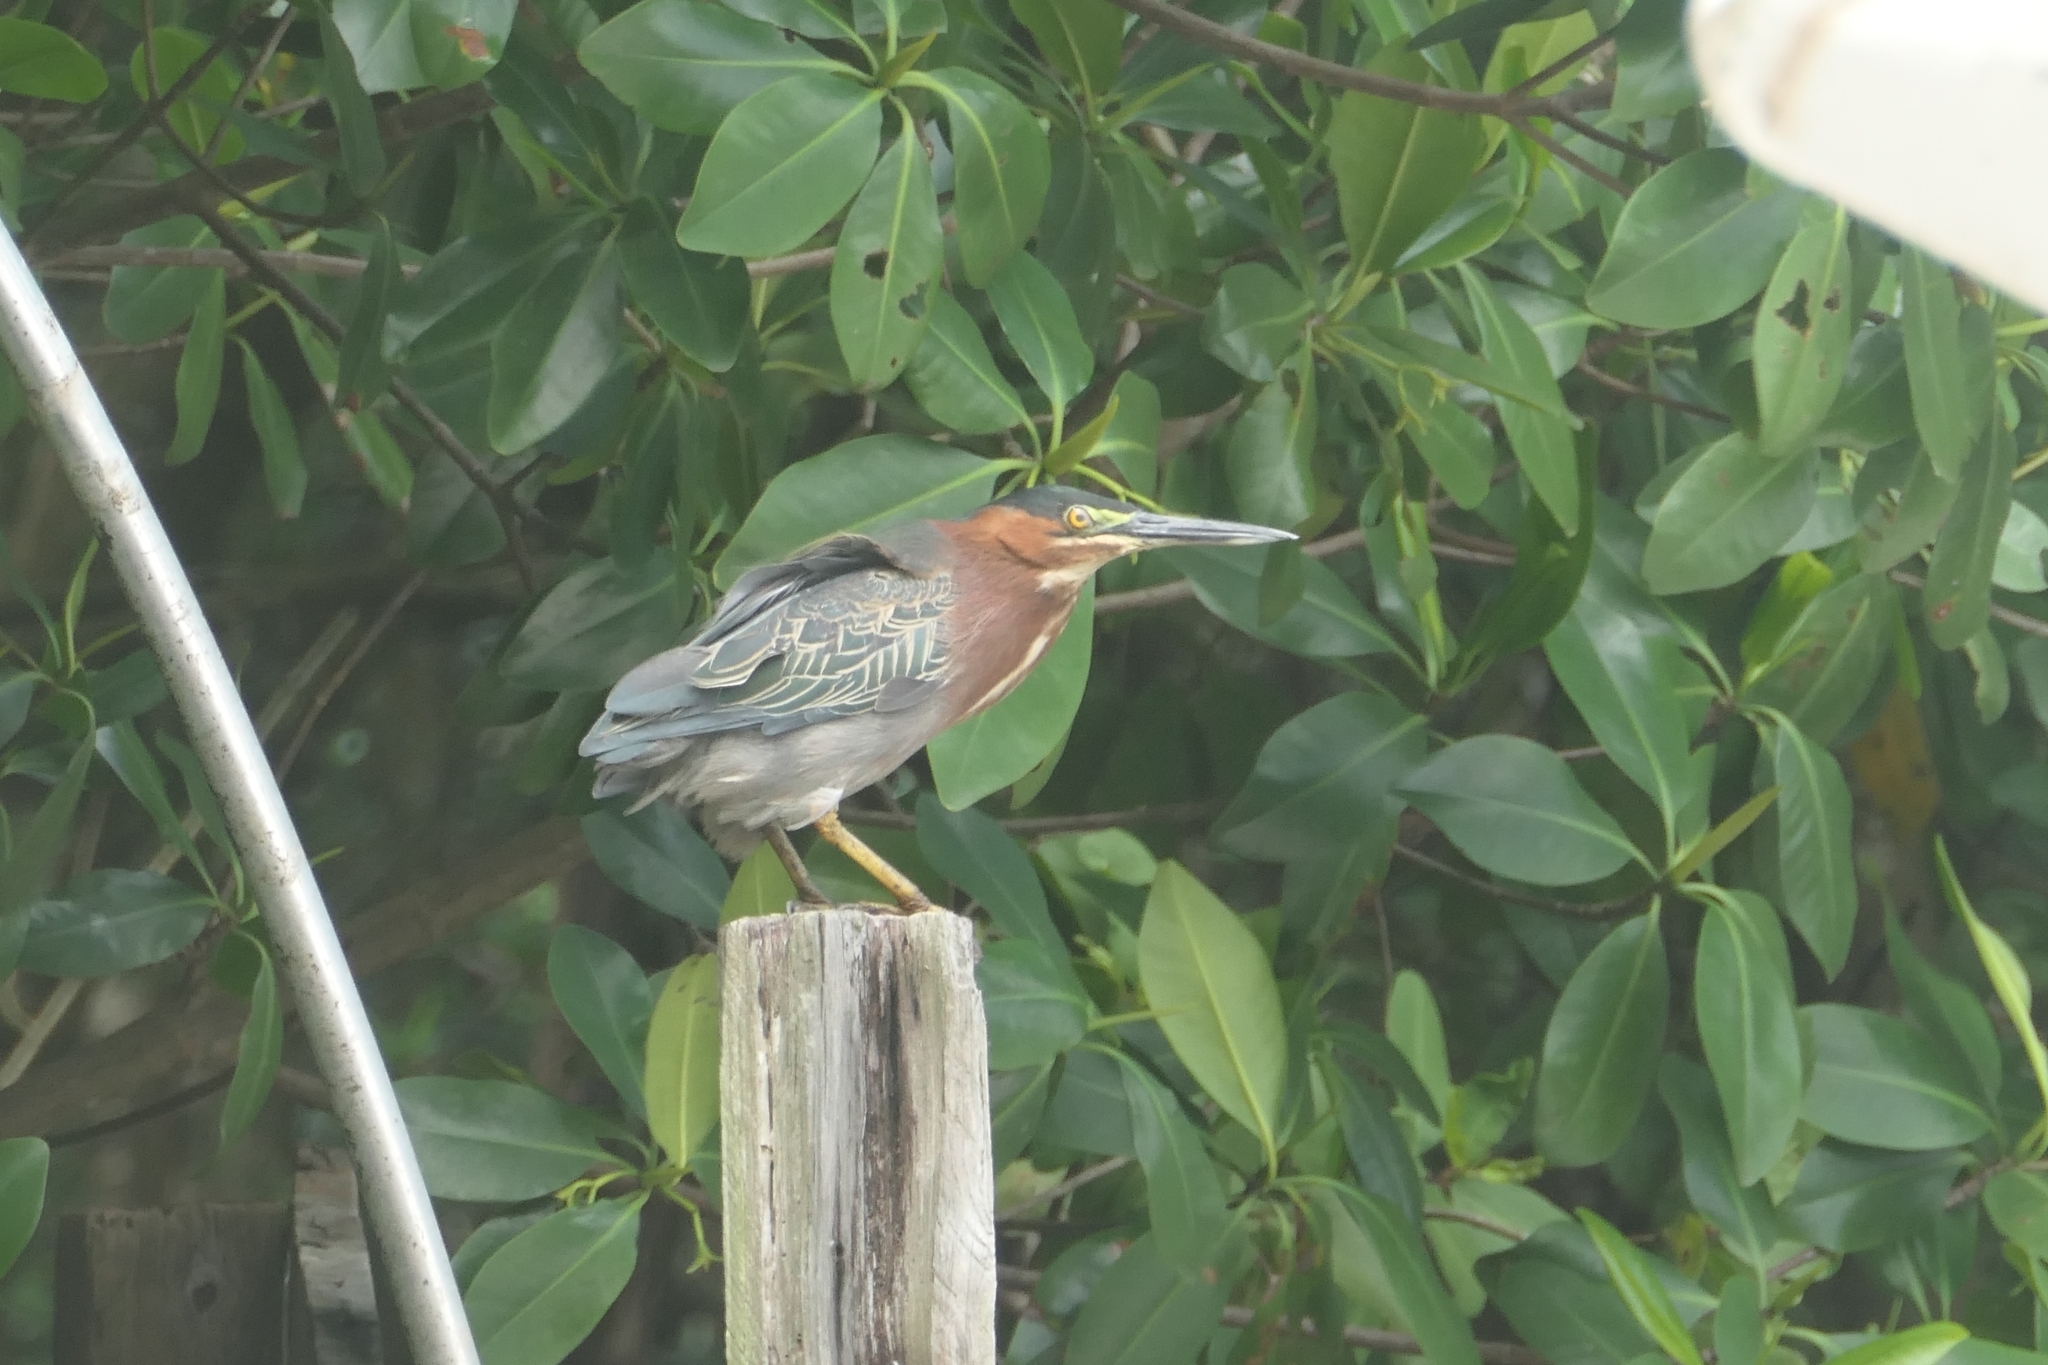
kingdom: Animalia
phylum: Chordata
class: Aves
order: Pelecaniformes
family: Ardeidae
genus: Butorides
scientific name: Butorides virescens
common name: Green heron
